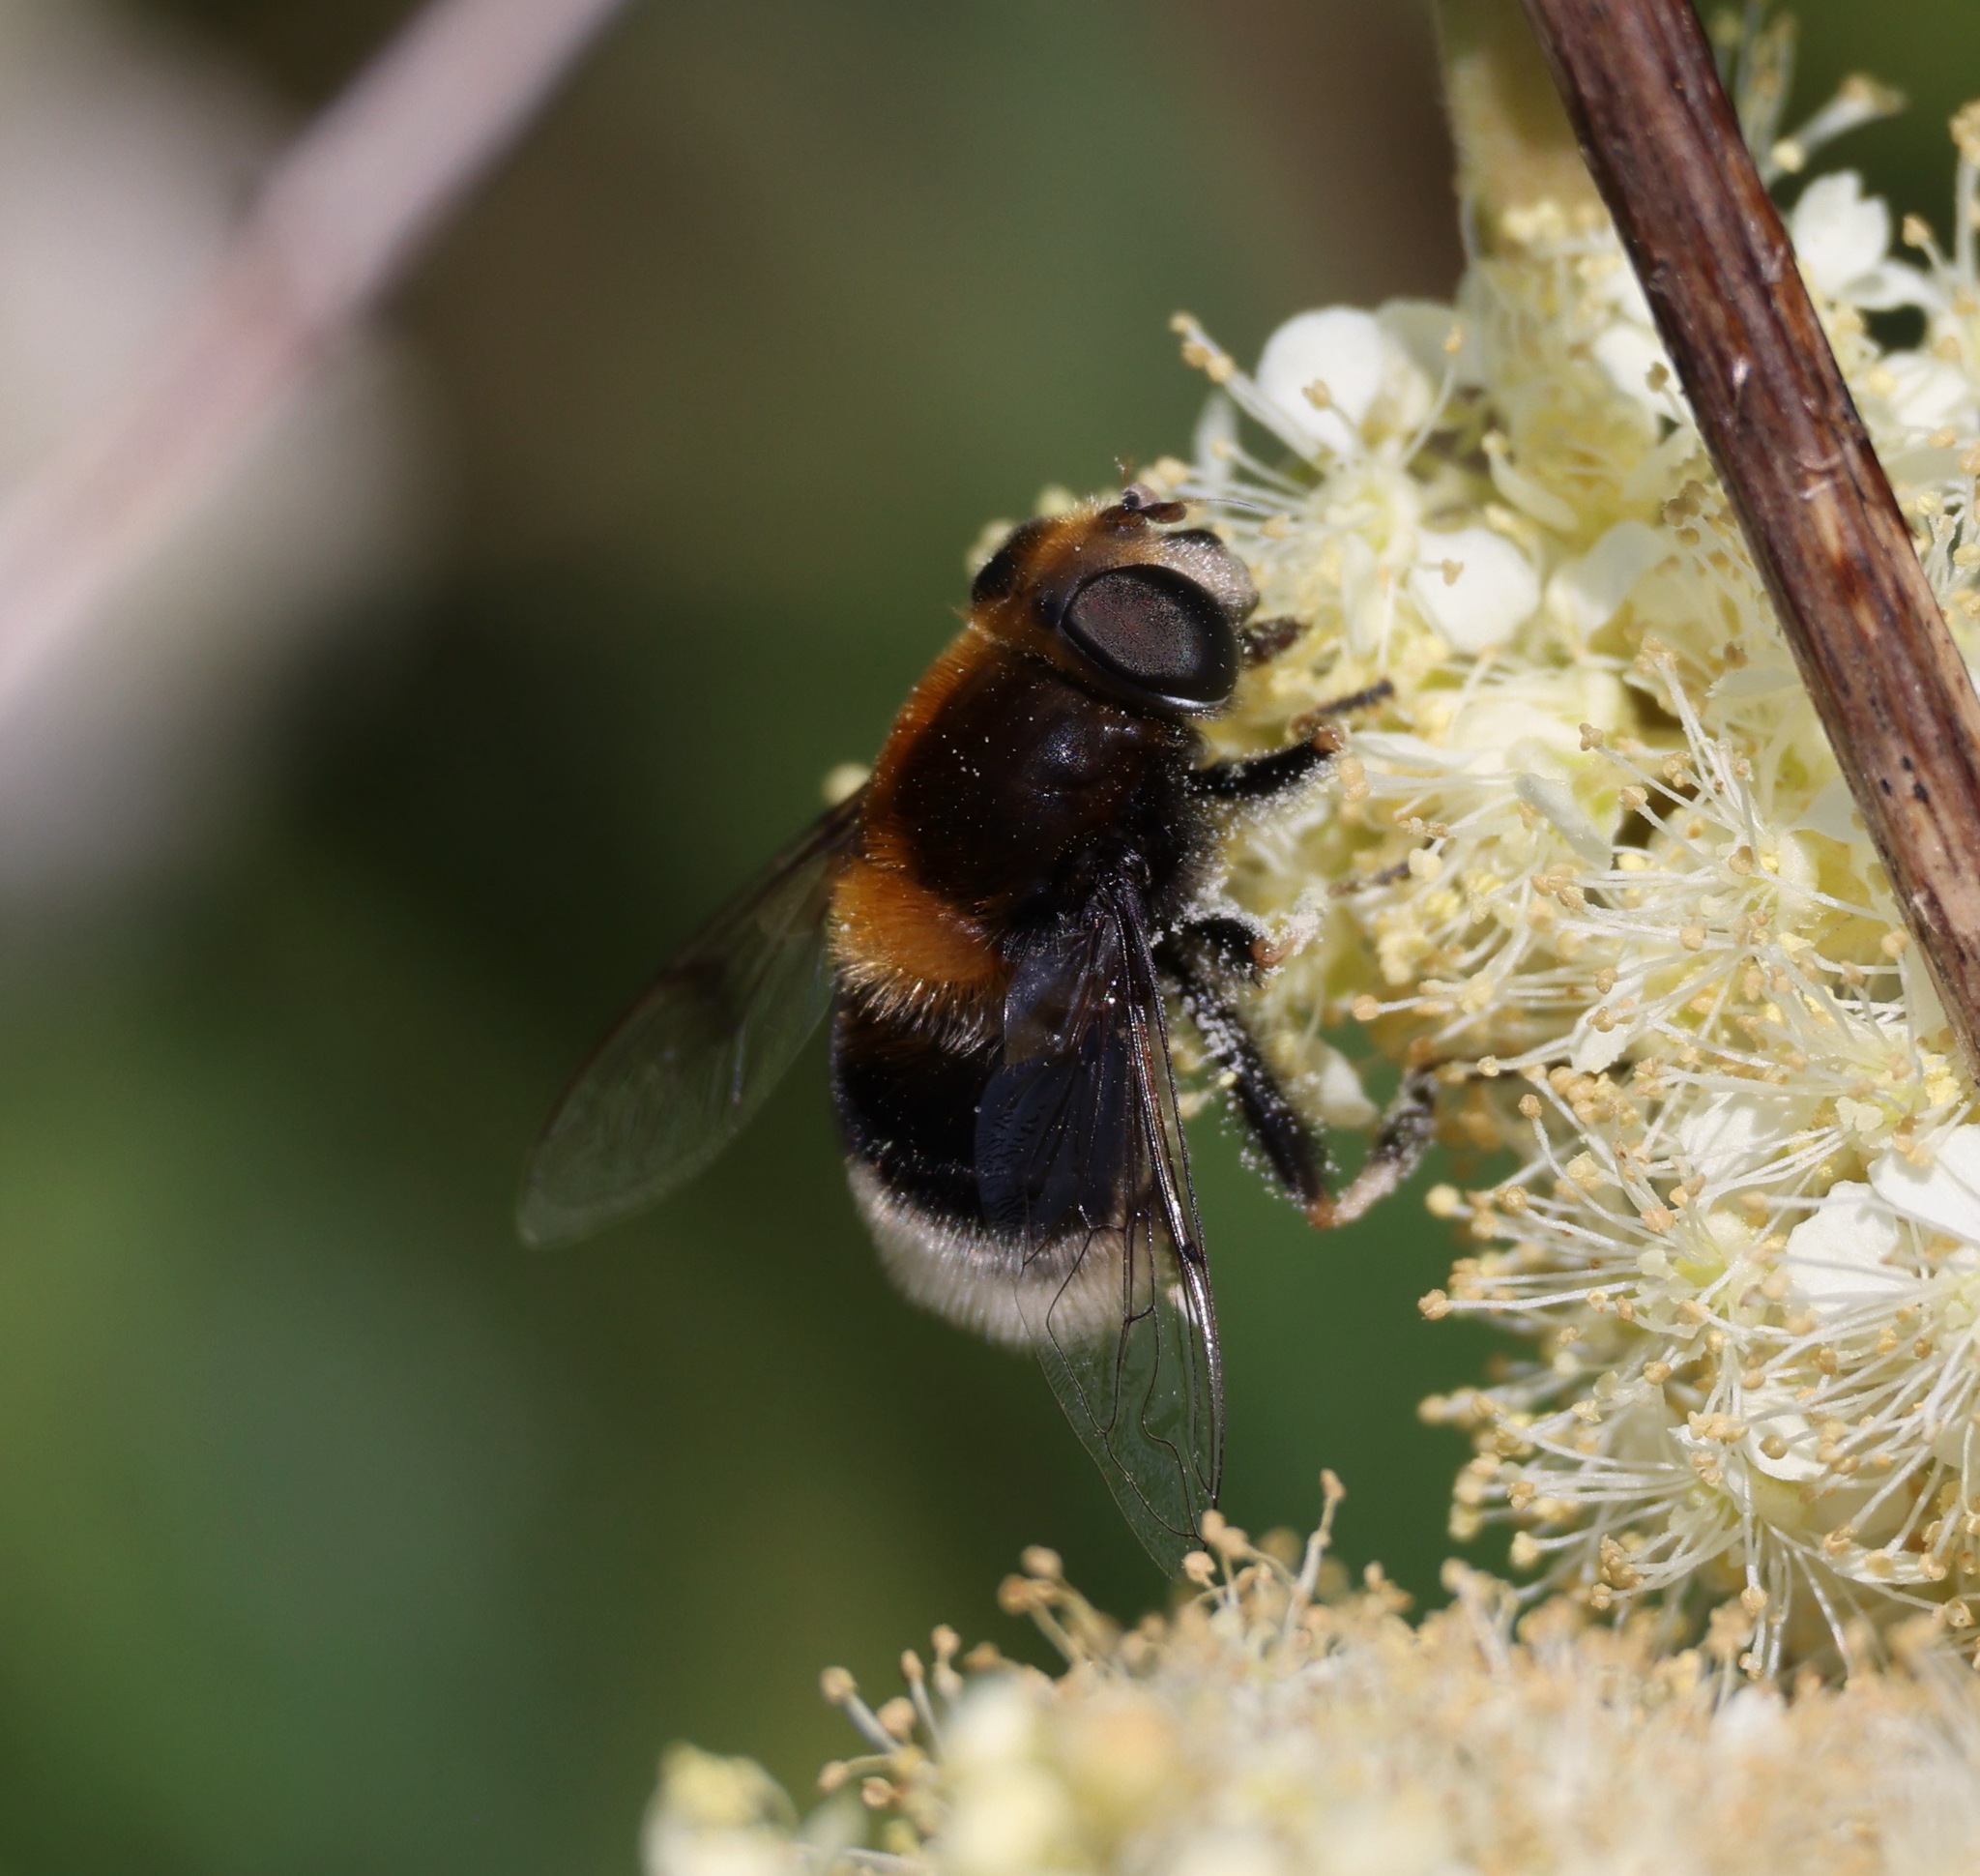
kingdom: Animalia
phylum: Arthropoda
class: Insecta
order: Diptera
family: Syrphidae
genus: Eristalis
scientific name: Eristalis intricaria
